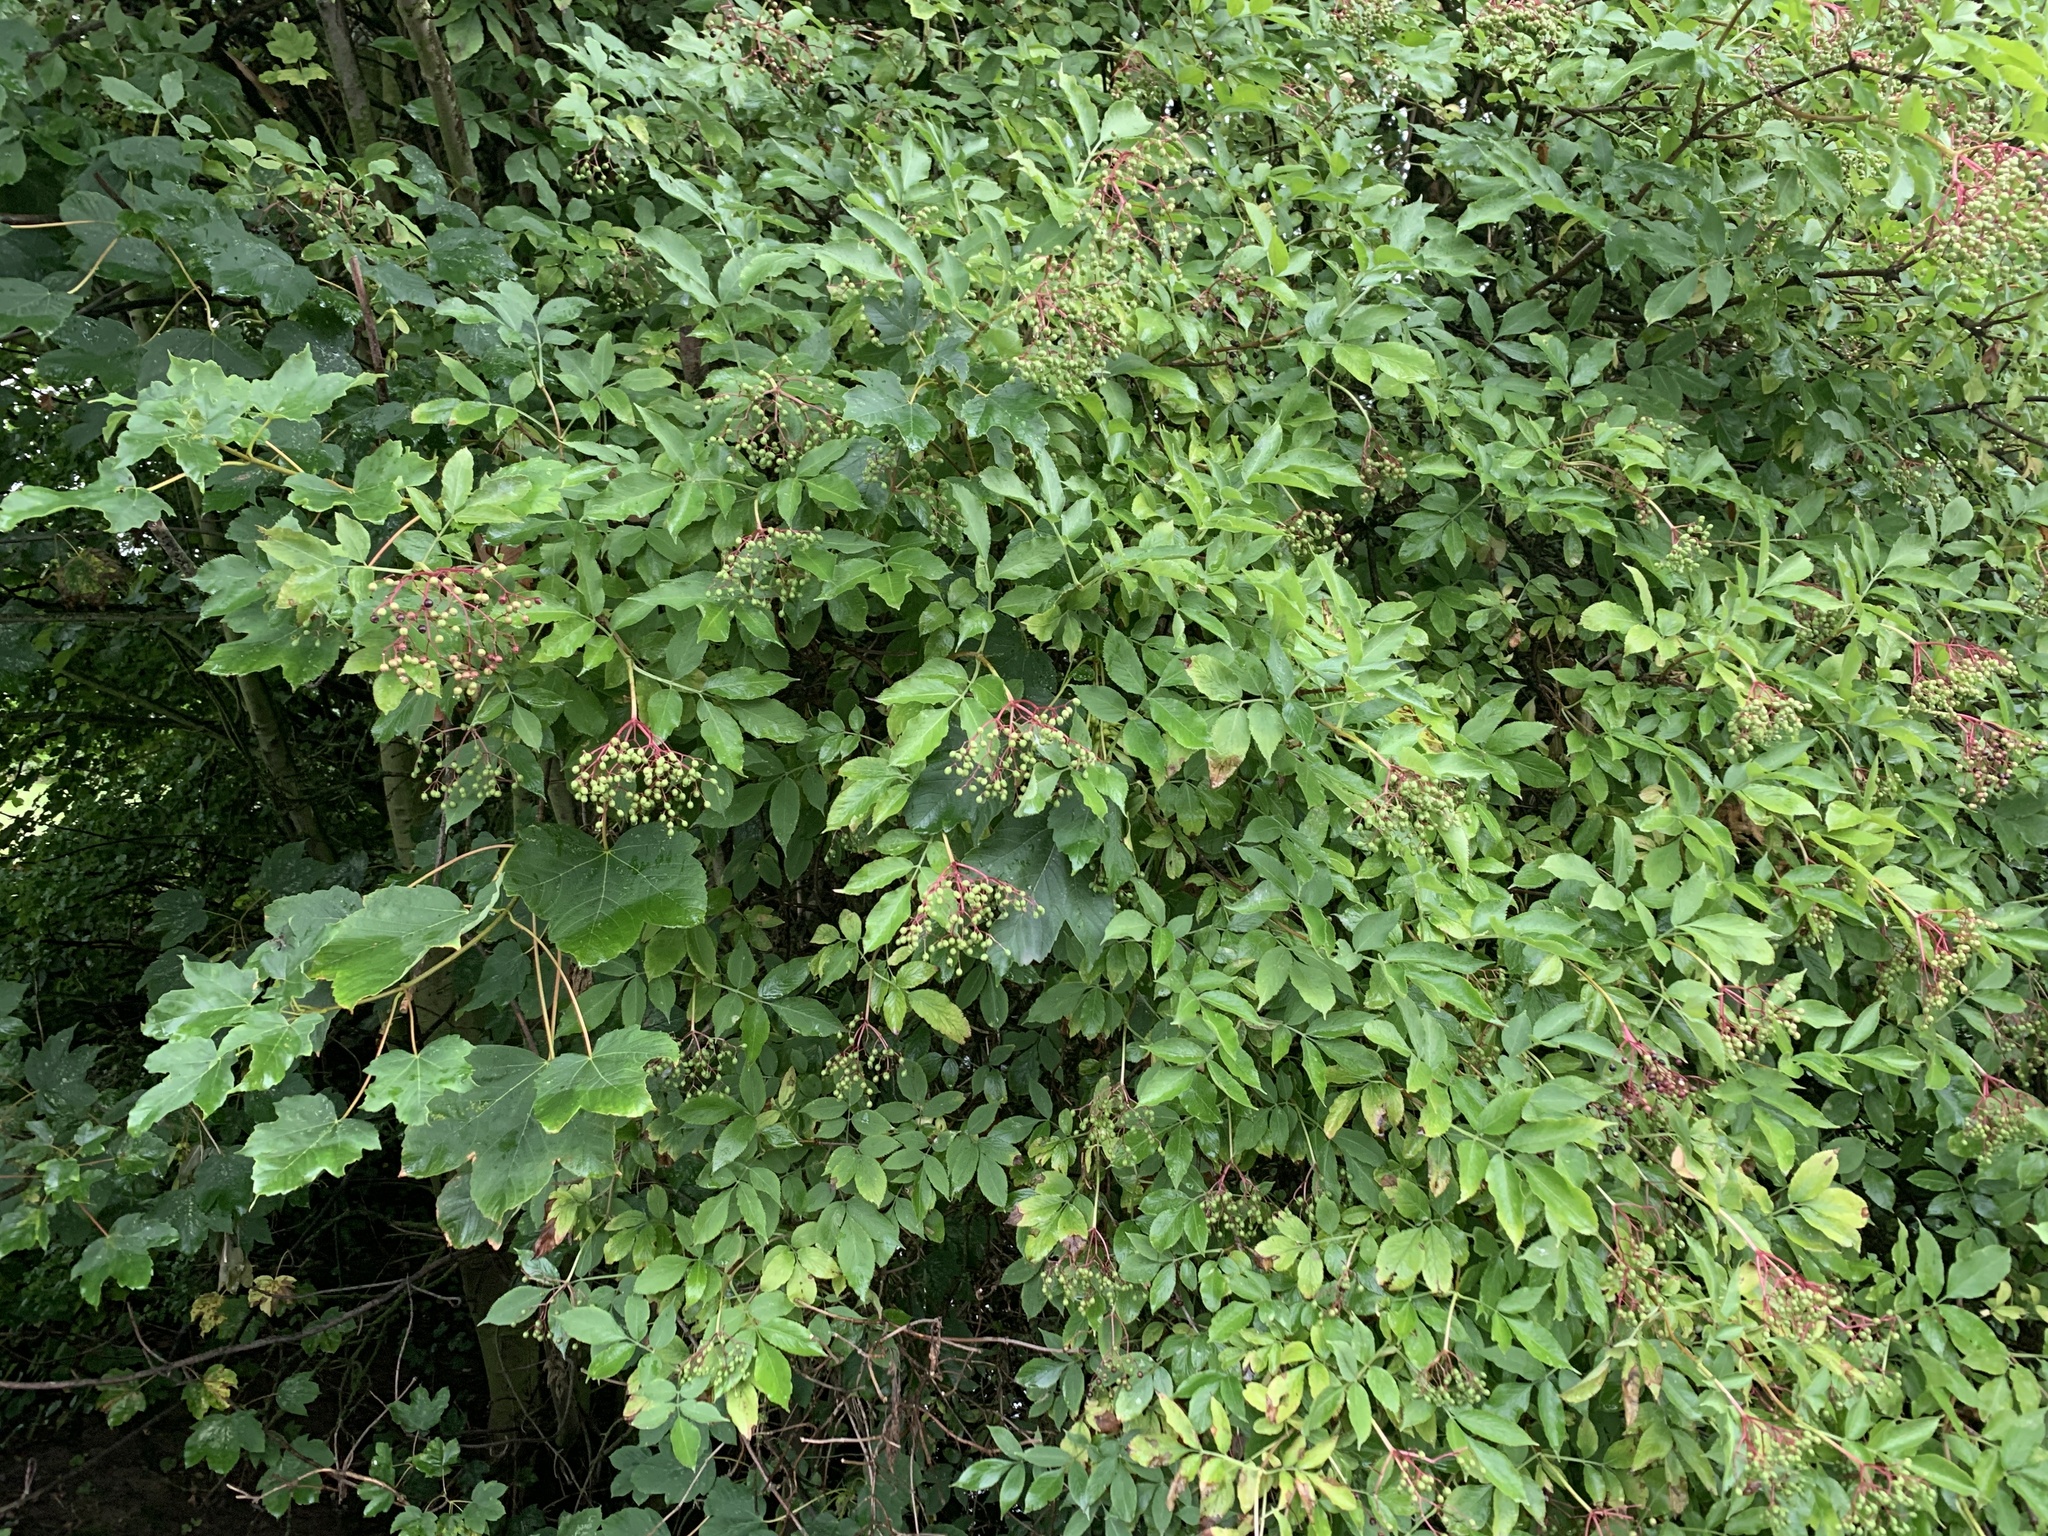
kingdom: Plantae
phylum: Tracheophyta
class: Magnoliopsida
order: Dipsacales
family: Viburnaceae
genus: Sambucus
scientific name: Sambucus nigra
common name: Elder
